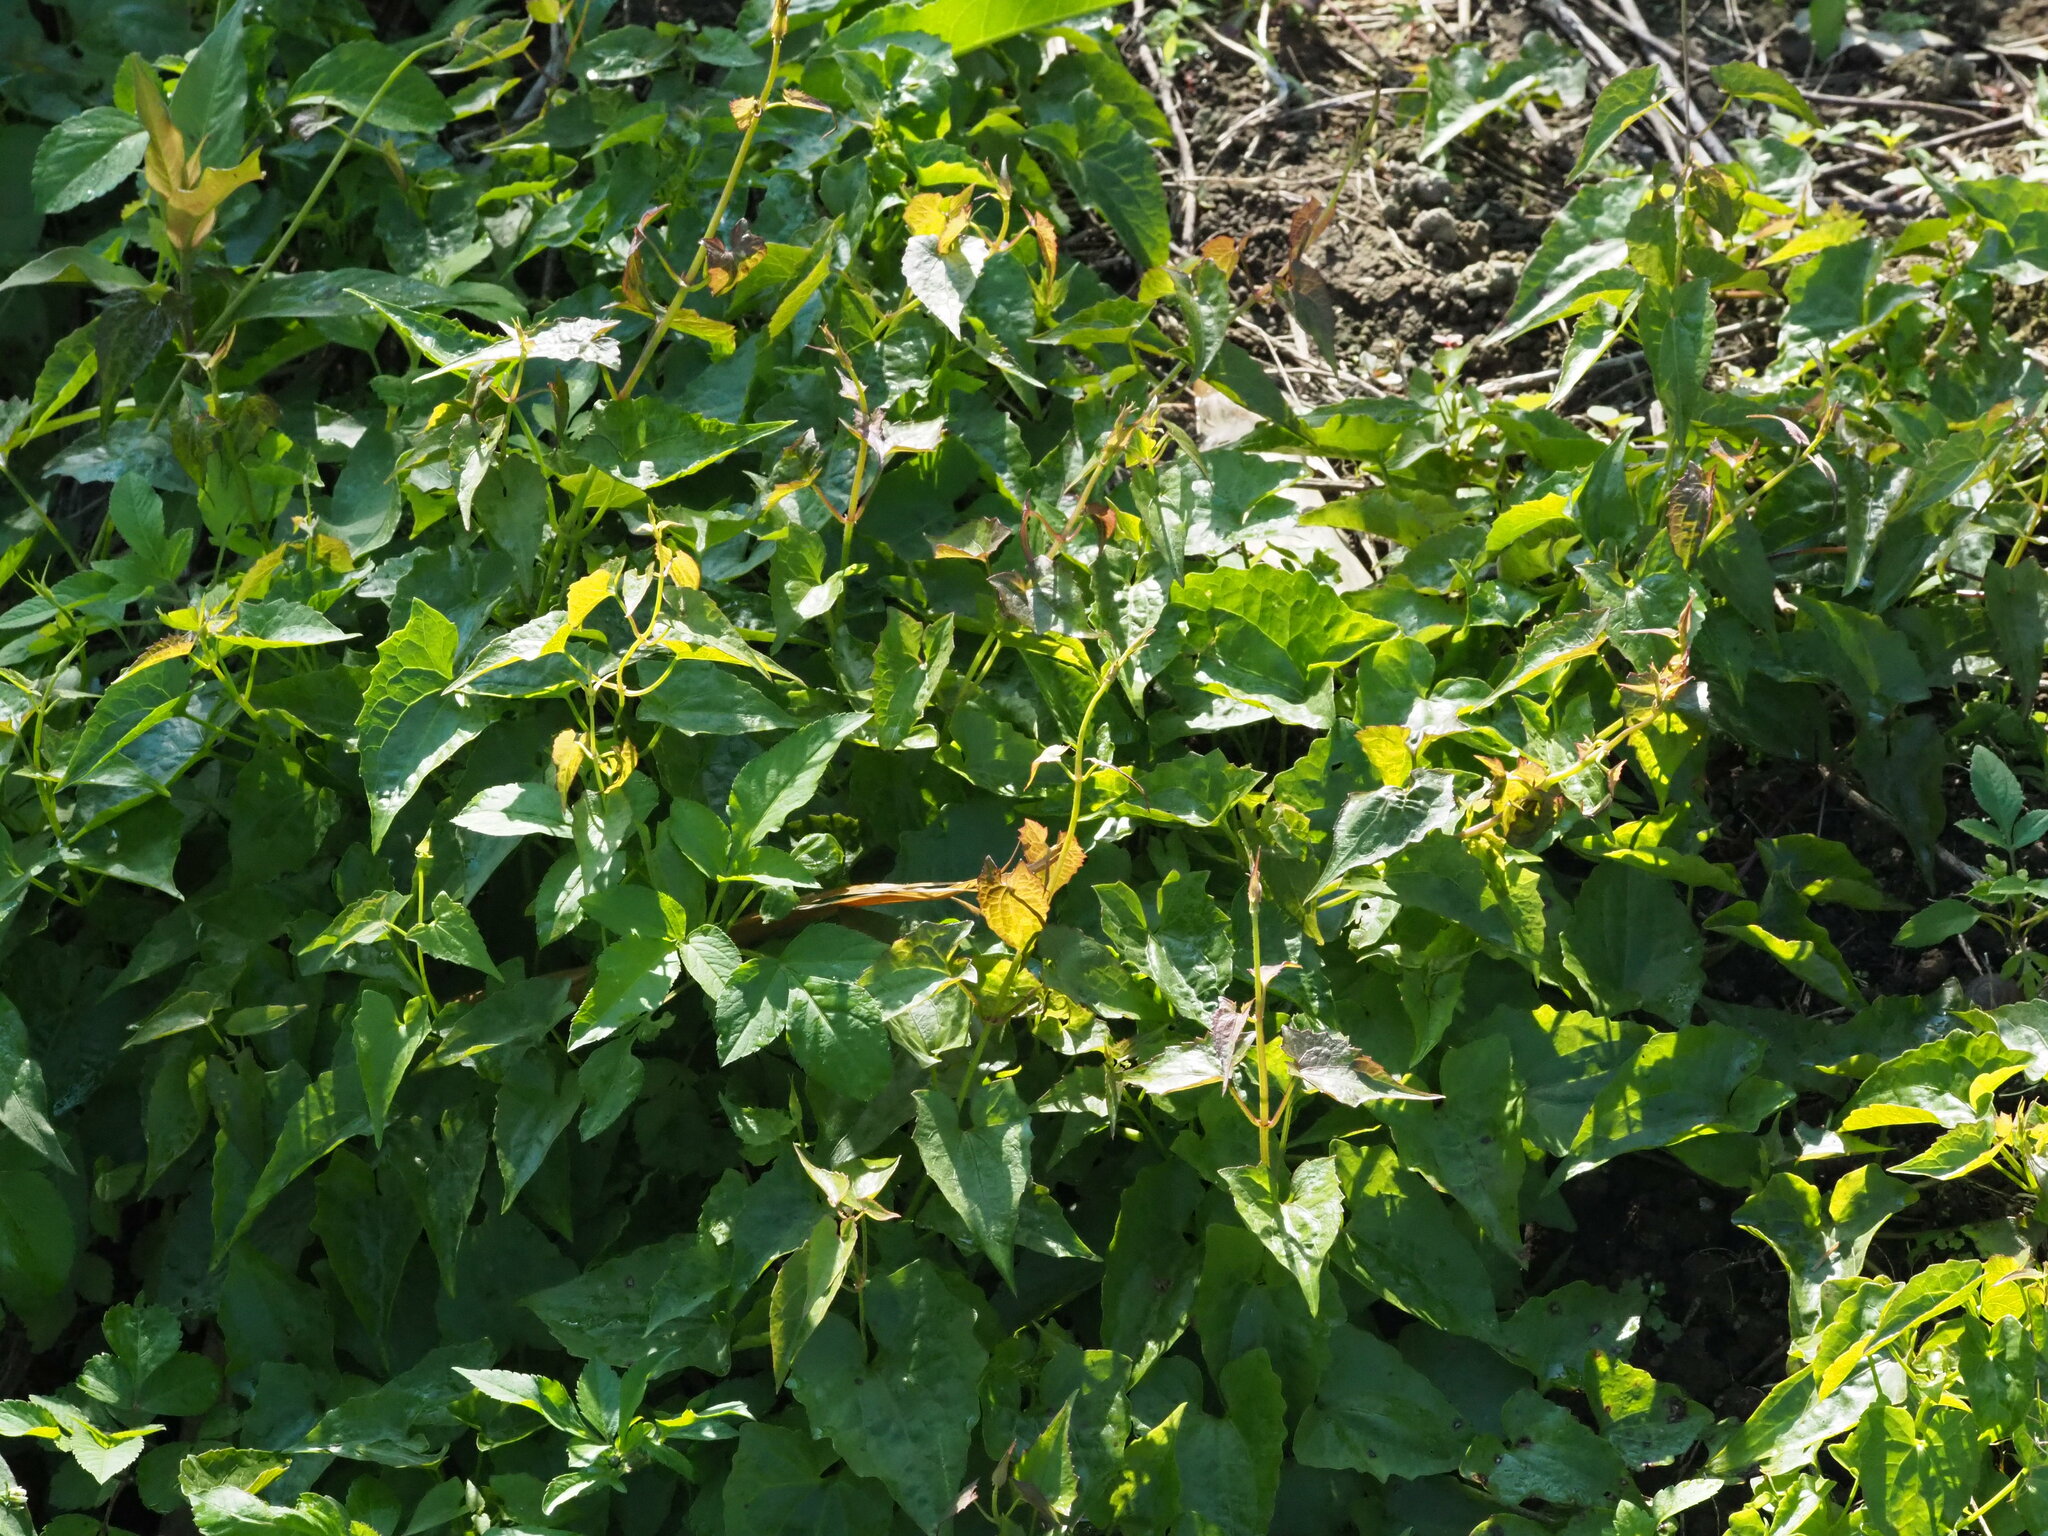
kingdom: Plantae
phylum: Tracheophyta
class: Magnoliopsida
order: Asterales
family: Asteraceae
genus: Mikania
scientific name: Mikania micrantha
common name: Mile-a-minute
